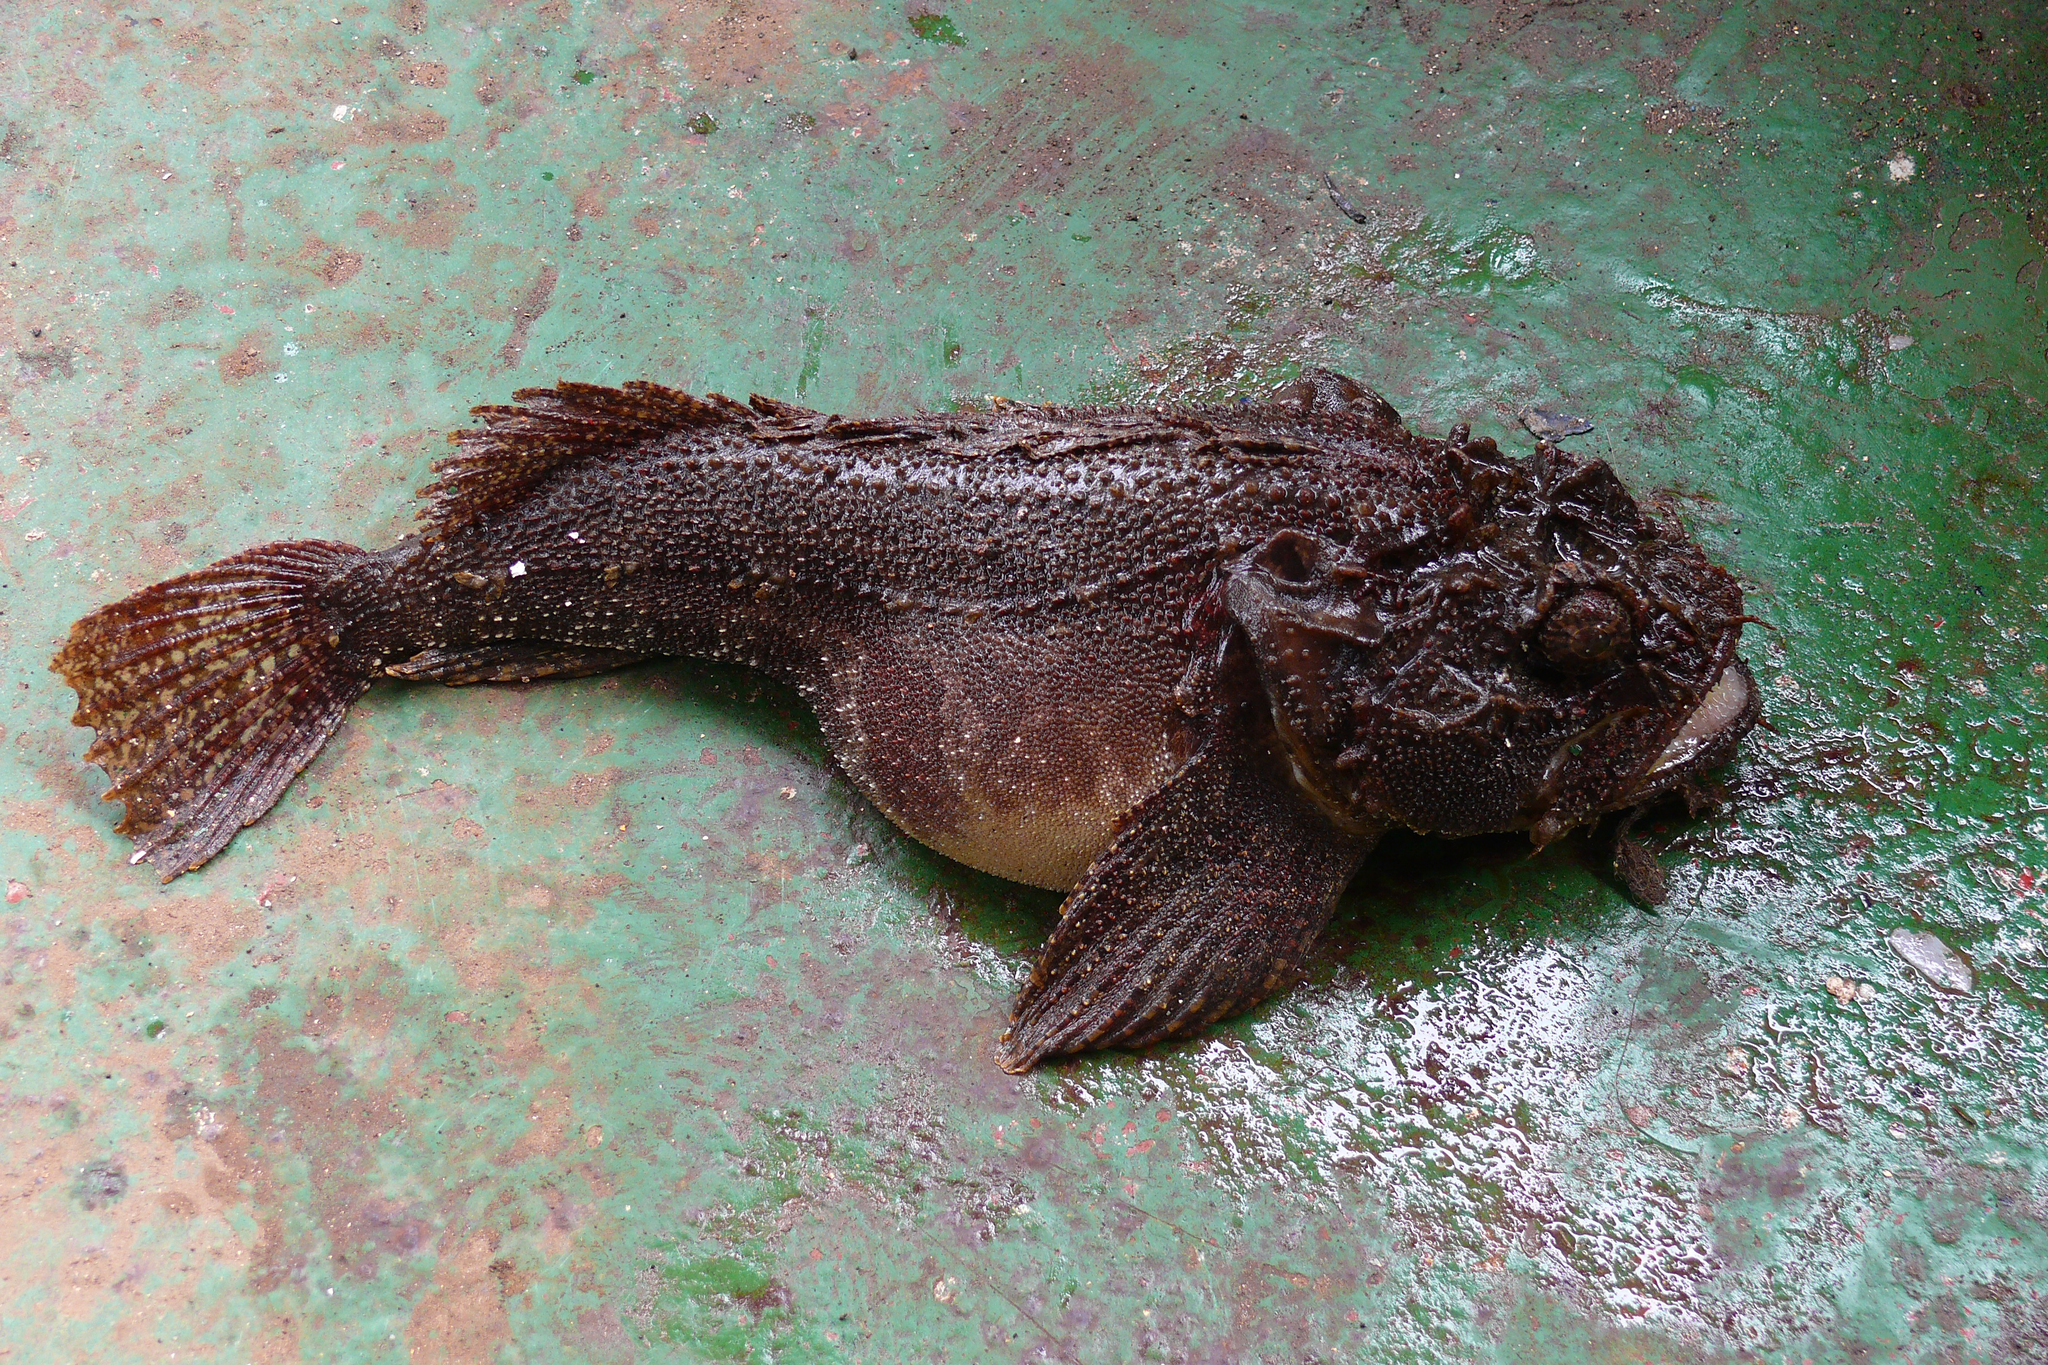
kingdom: Animalia
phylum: Chordata
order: Scorpaeniformes
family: Hemitripteridae
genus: Hemitripterus
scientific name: Hemitripterus villosus
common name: Sea raven
